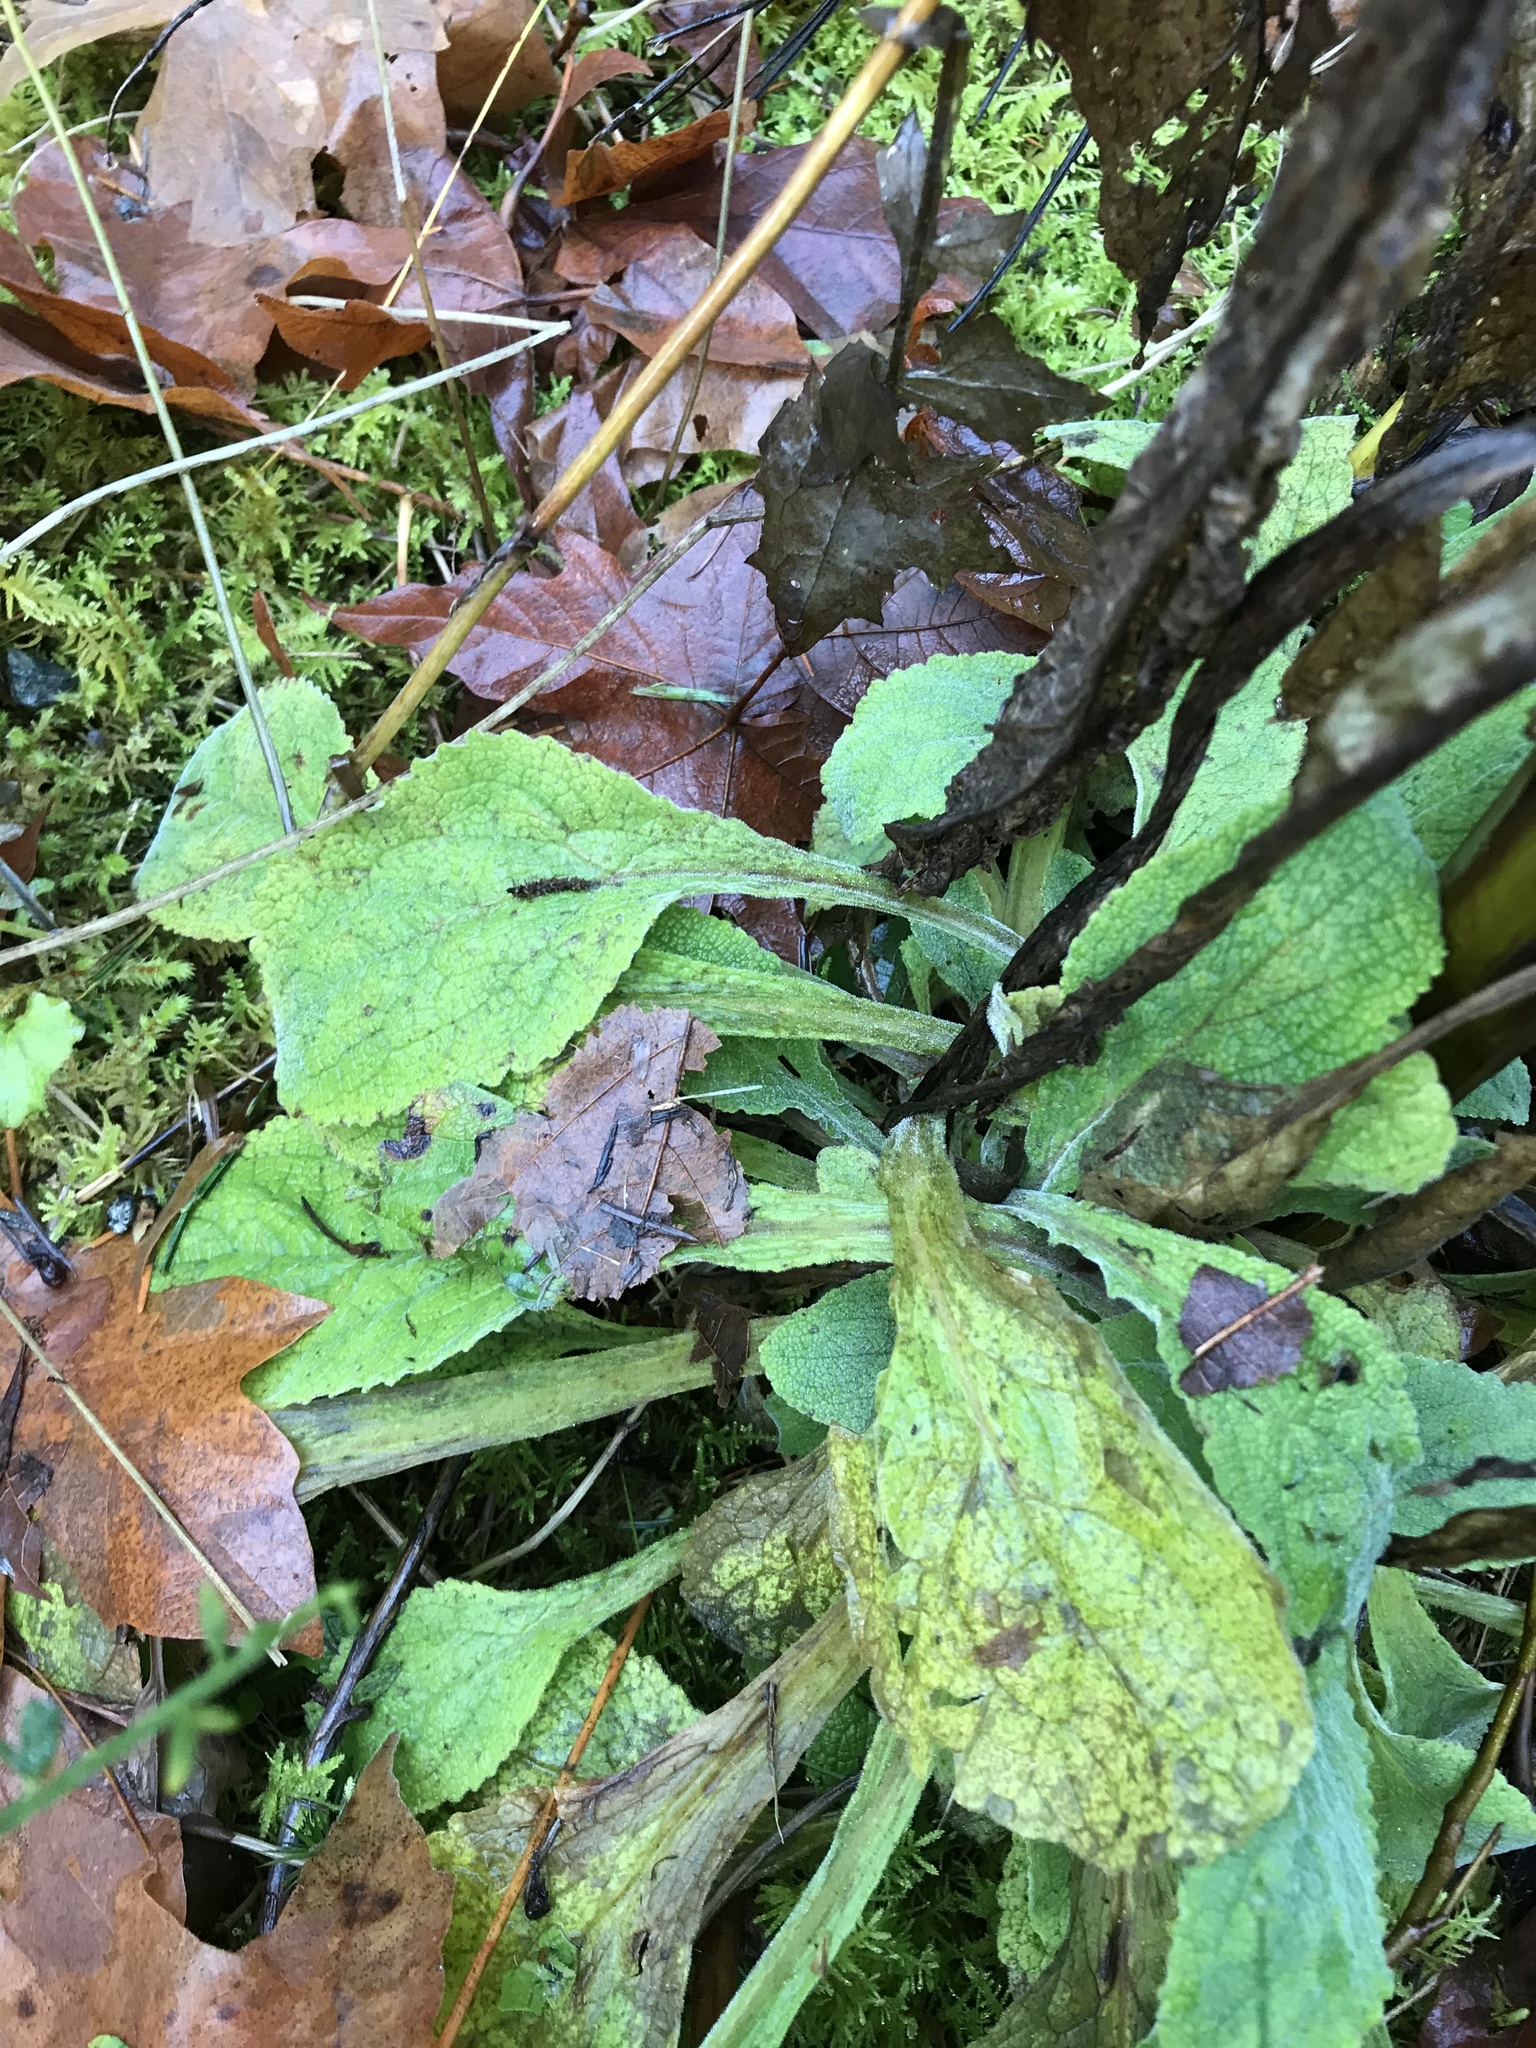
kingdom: Plantae
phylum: Tracheophyta
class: Magnoliopsida
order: Lamiales
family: Plantaginaceae
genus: Digitalis
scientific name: Digitalis purpurea
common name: Foxglove
